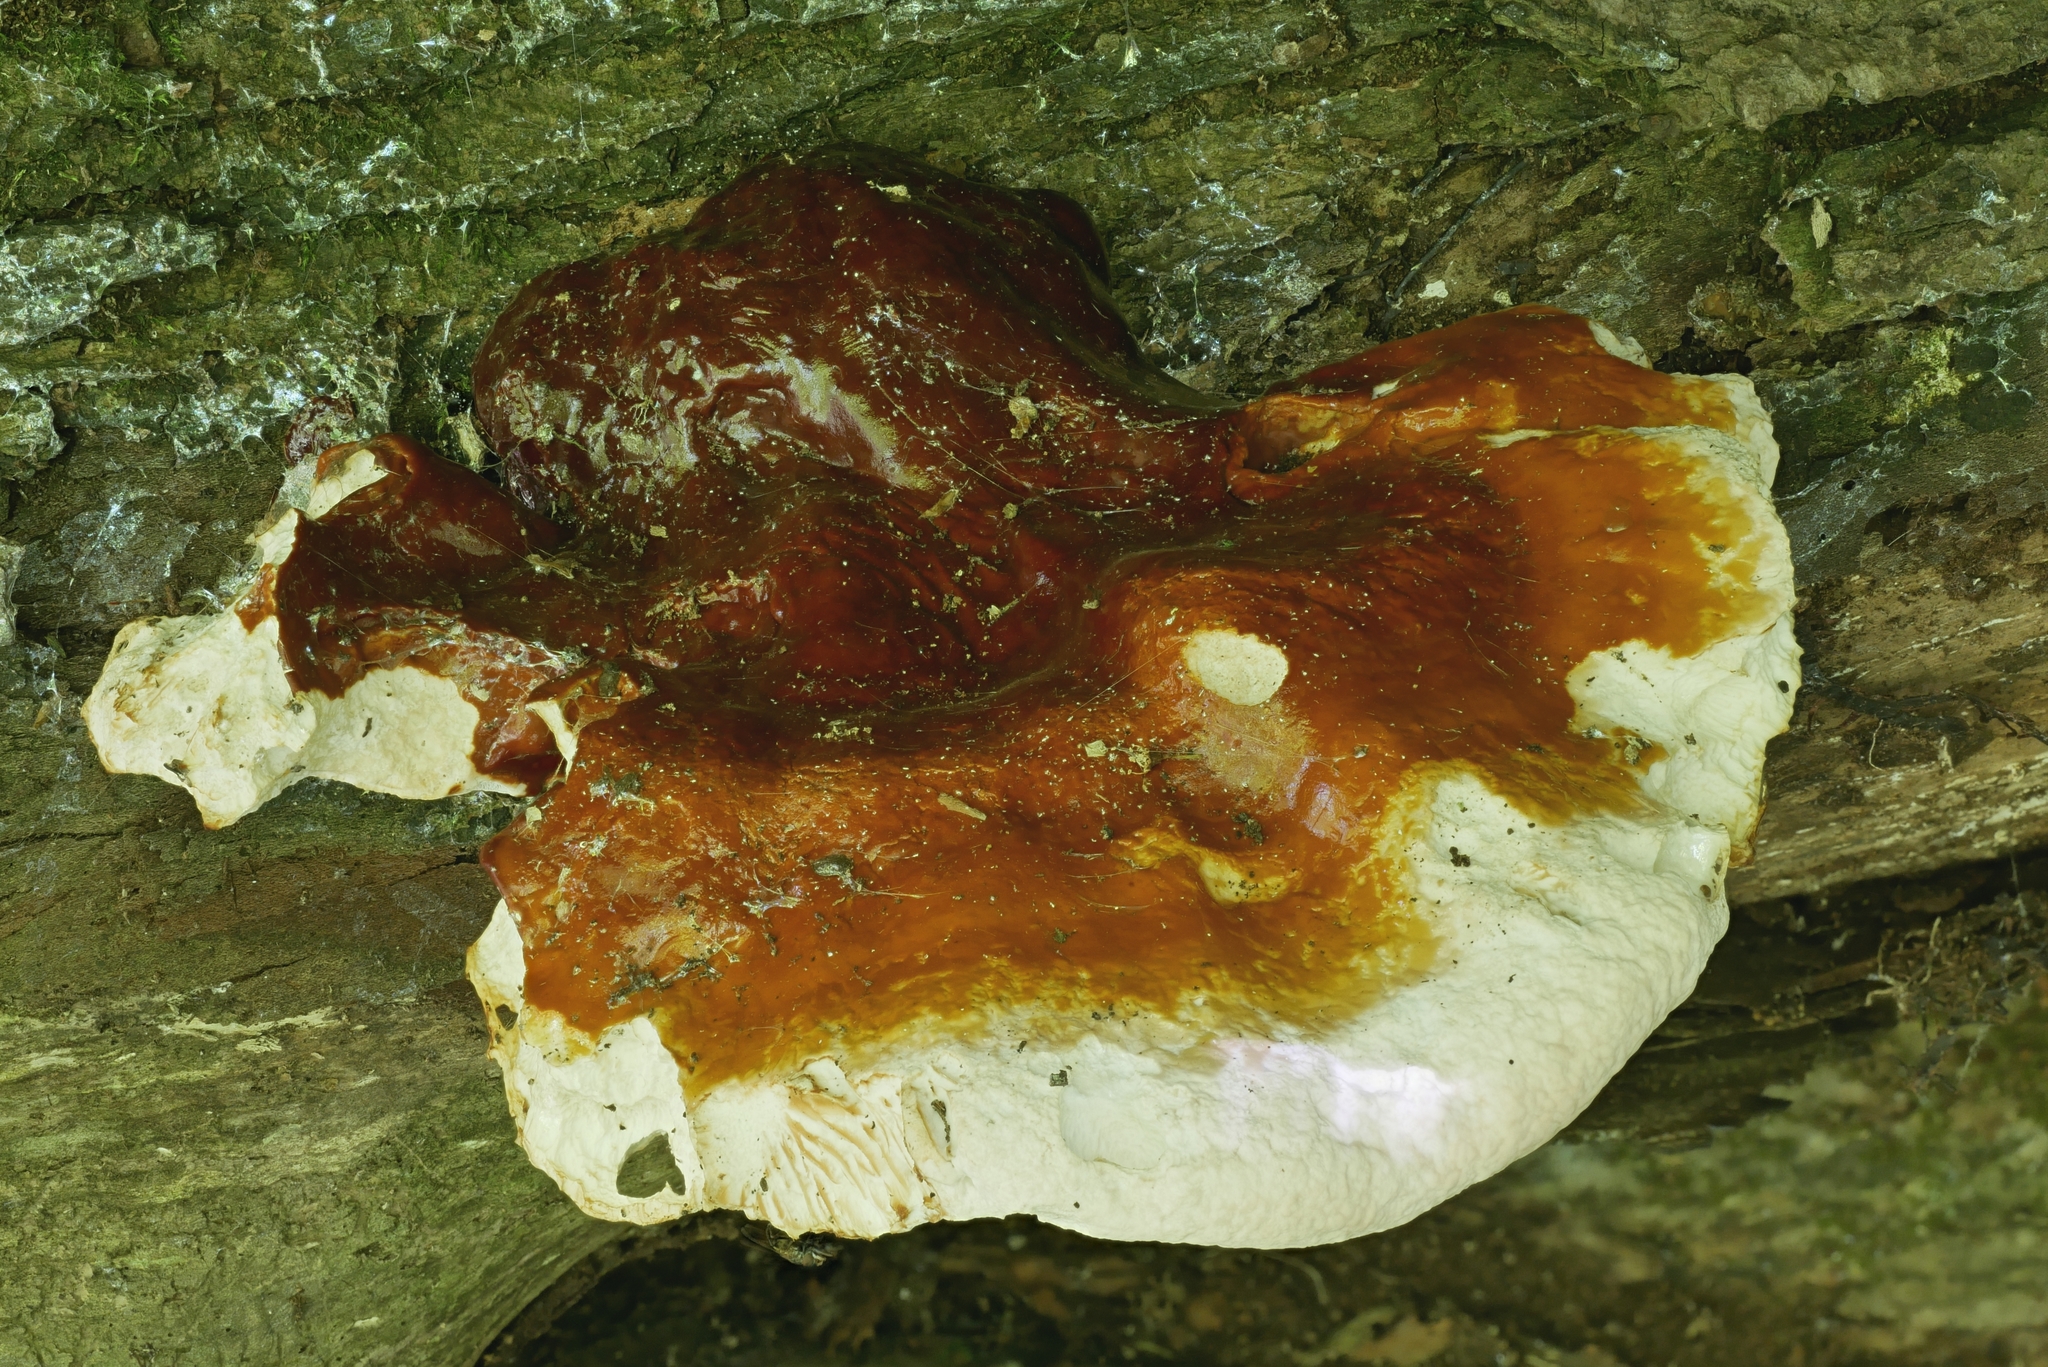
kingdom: Fungi
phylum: Basidiomycota
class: Agaricomycetes
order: Polyporales
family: Polyporaceae
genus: Ganoderma
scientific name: Ganoderma tsugae
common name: Hemlock varnish shelf
